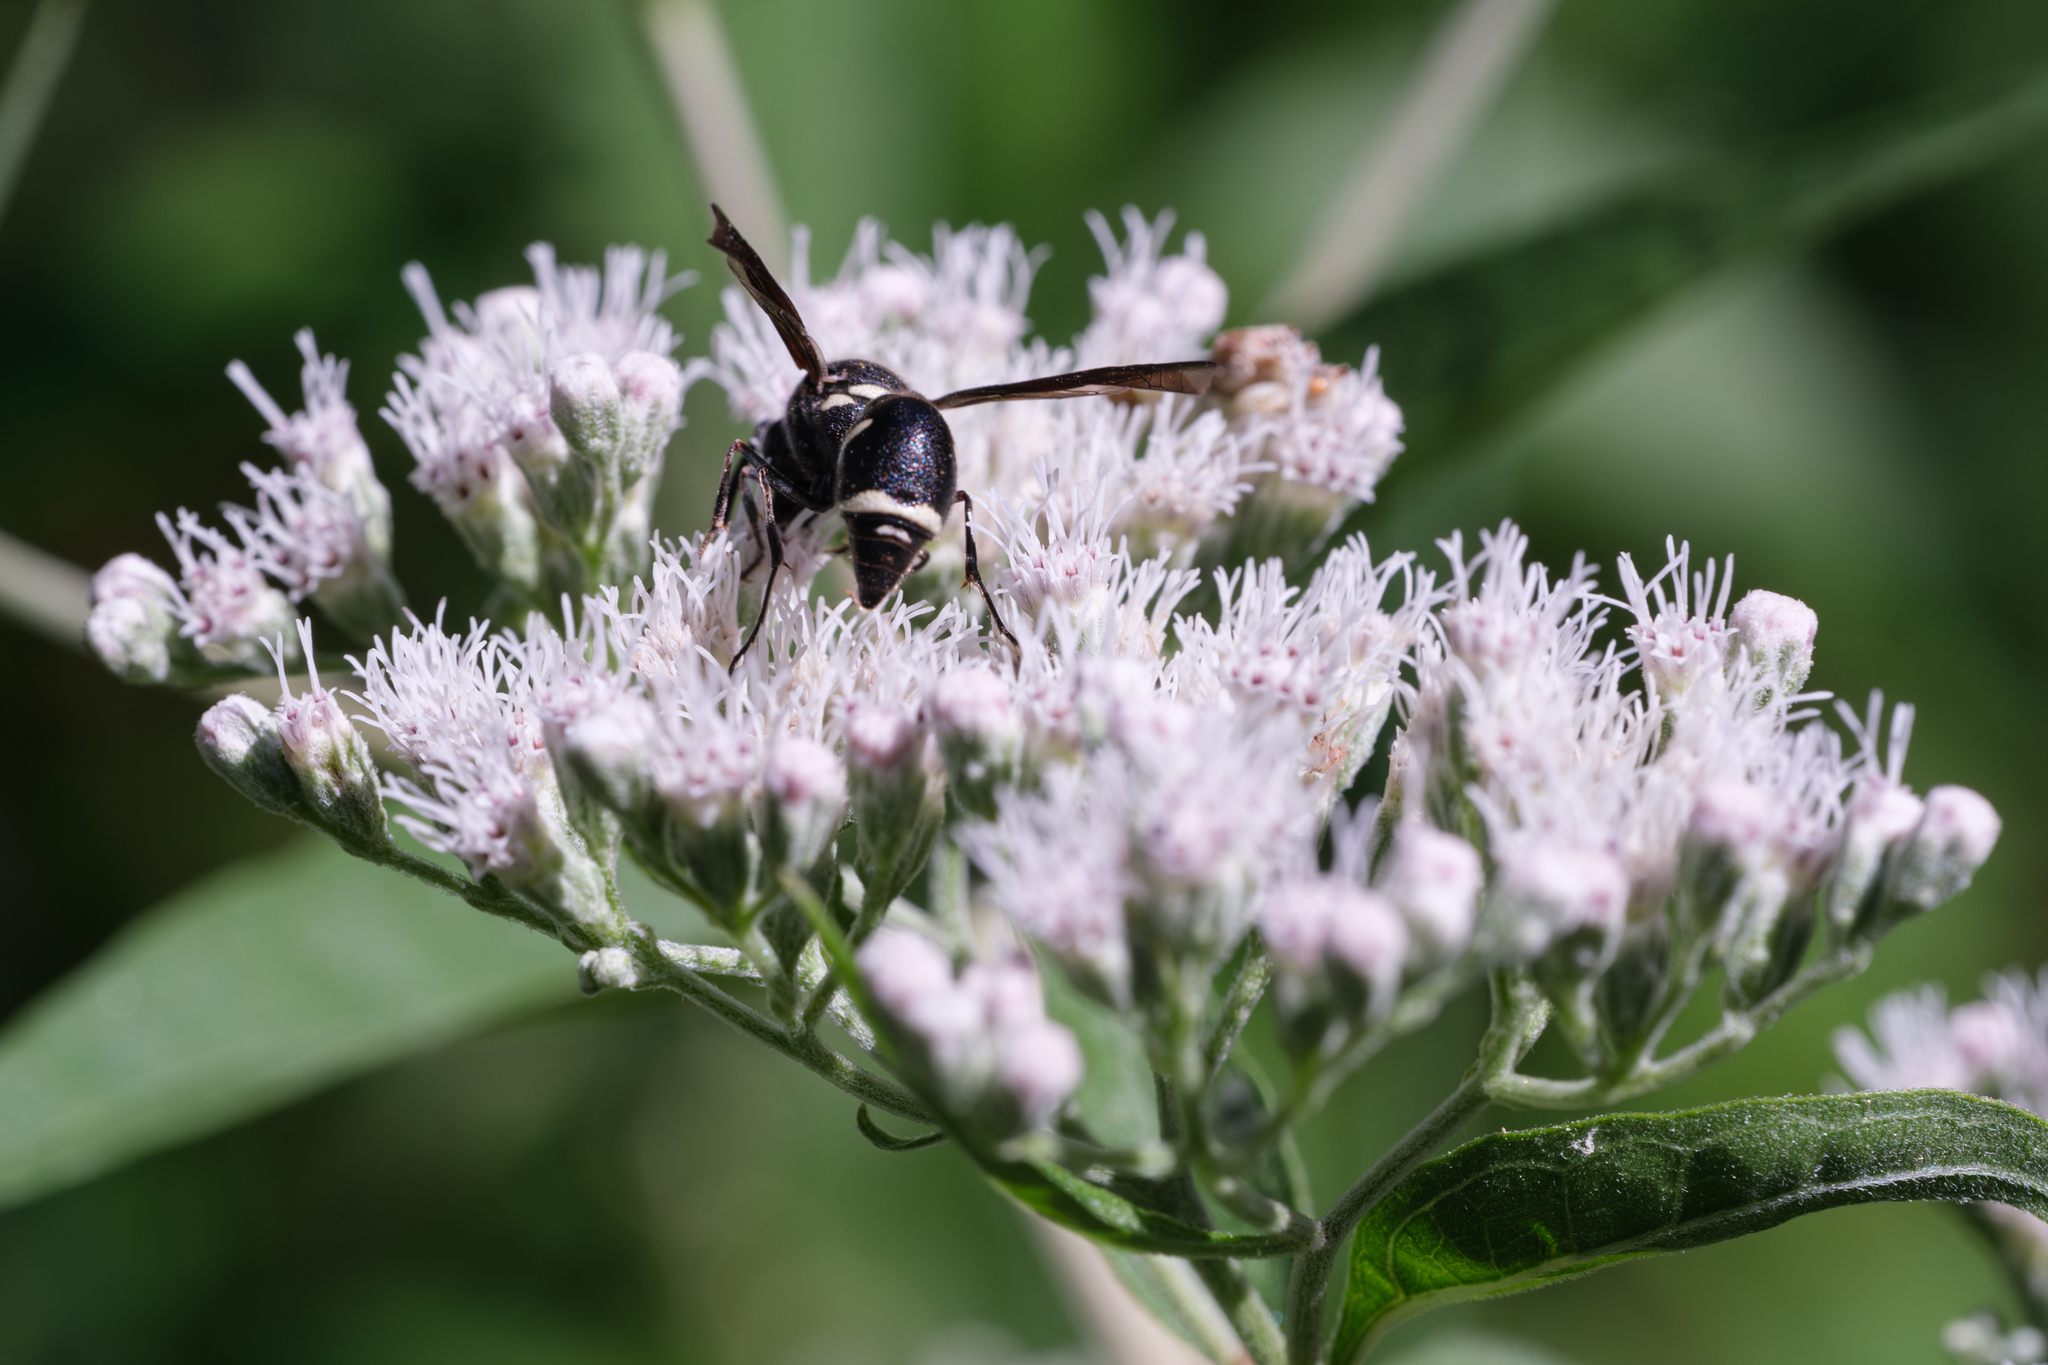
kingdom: Animalia
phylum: Arthropoda
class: Insecta
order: Hymenoptera
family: Vespidae
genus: Eumenes
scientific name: Eumenes fraternus
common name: Fraternal potter wasp
